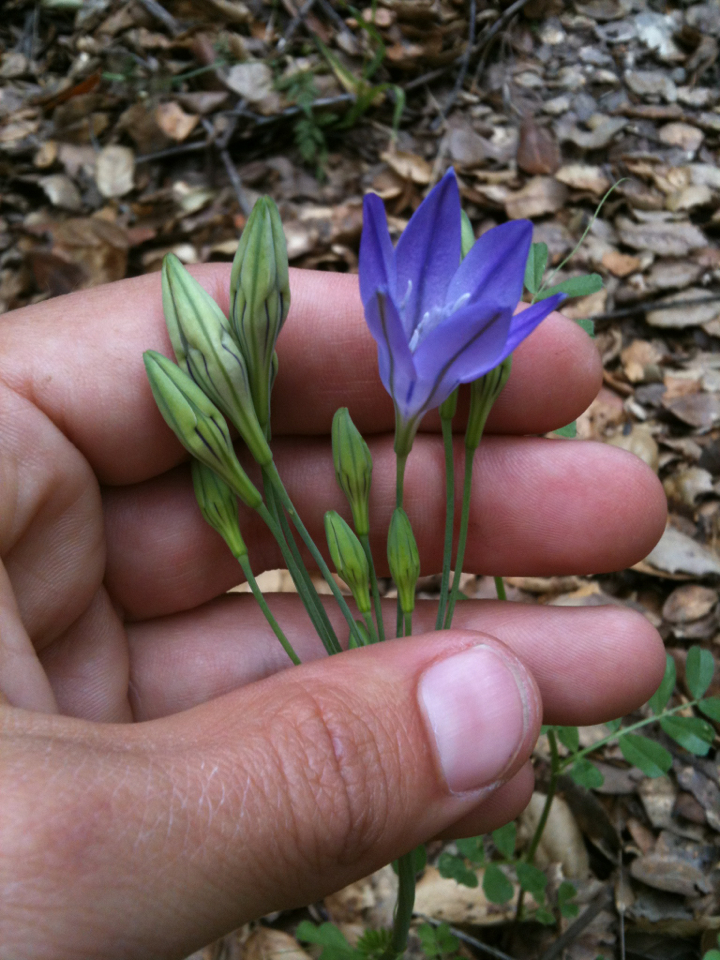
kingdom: Plantae
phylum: Tracheophyta
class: Liliopsida
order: Asparagales
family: Asparagaceae
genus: Triteleia
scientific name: Triteleia laxa
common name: Triplet-lily
